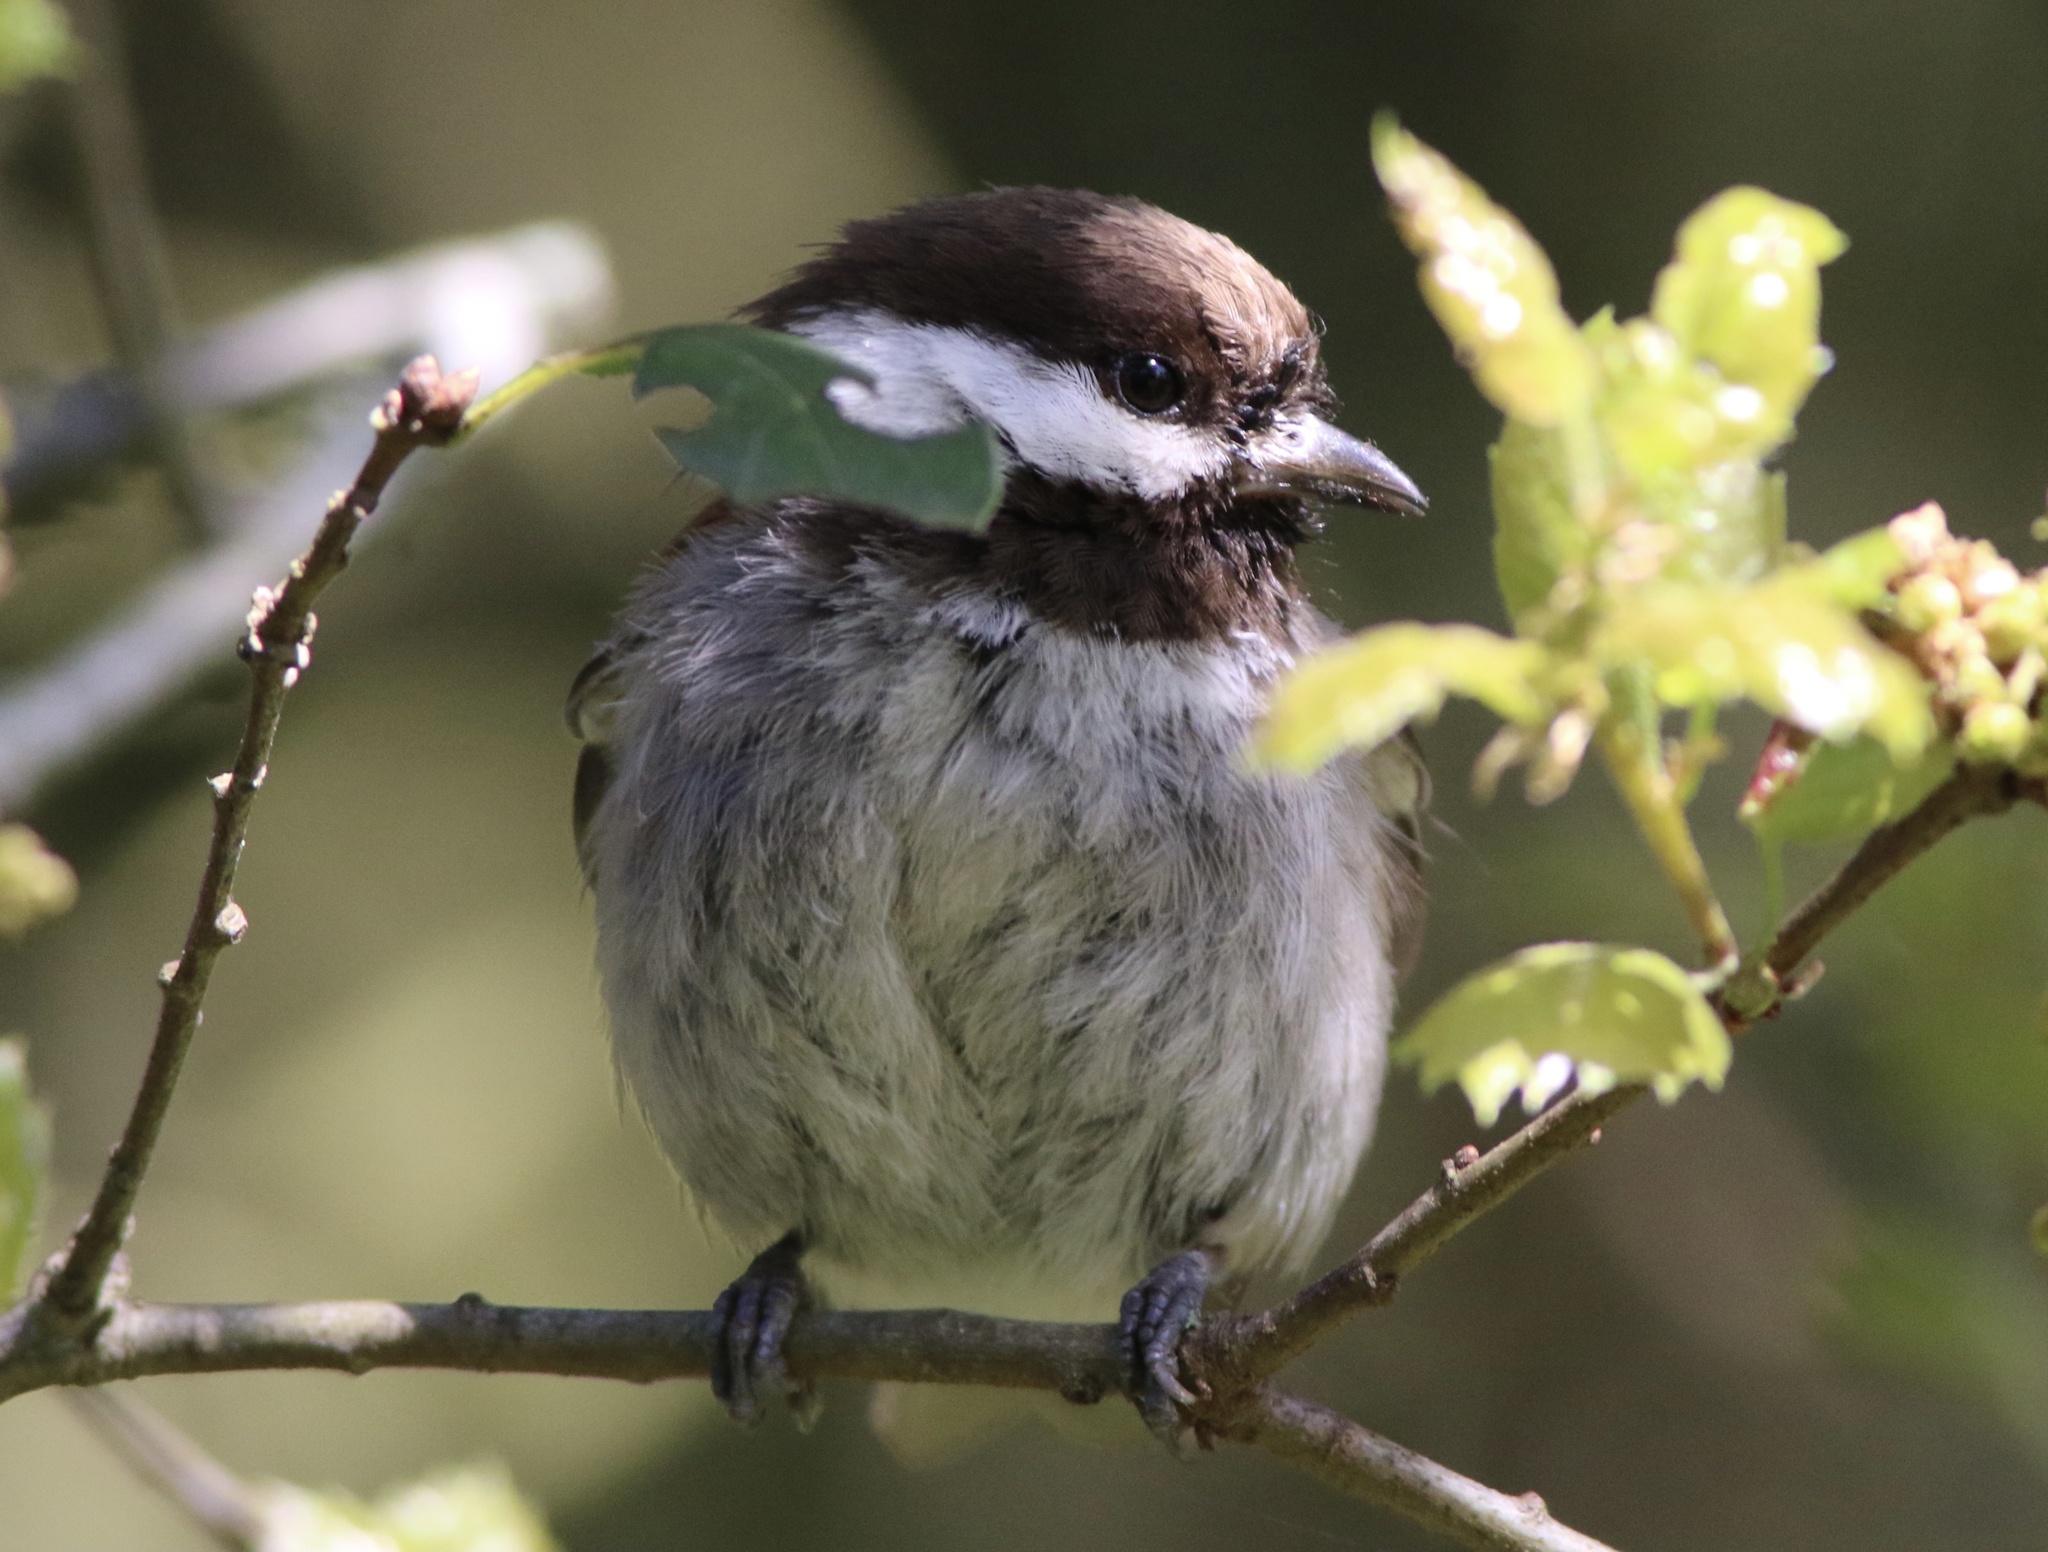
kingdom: Animalia
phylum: Chordata
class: Aves
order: Passeriformes
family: Paridae
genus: Poecile
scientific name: Poecile rufescens
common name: Chestnut-backed chickadee
